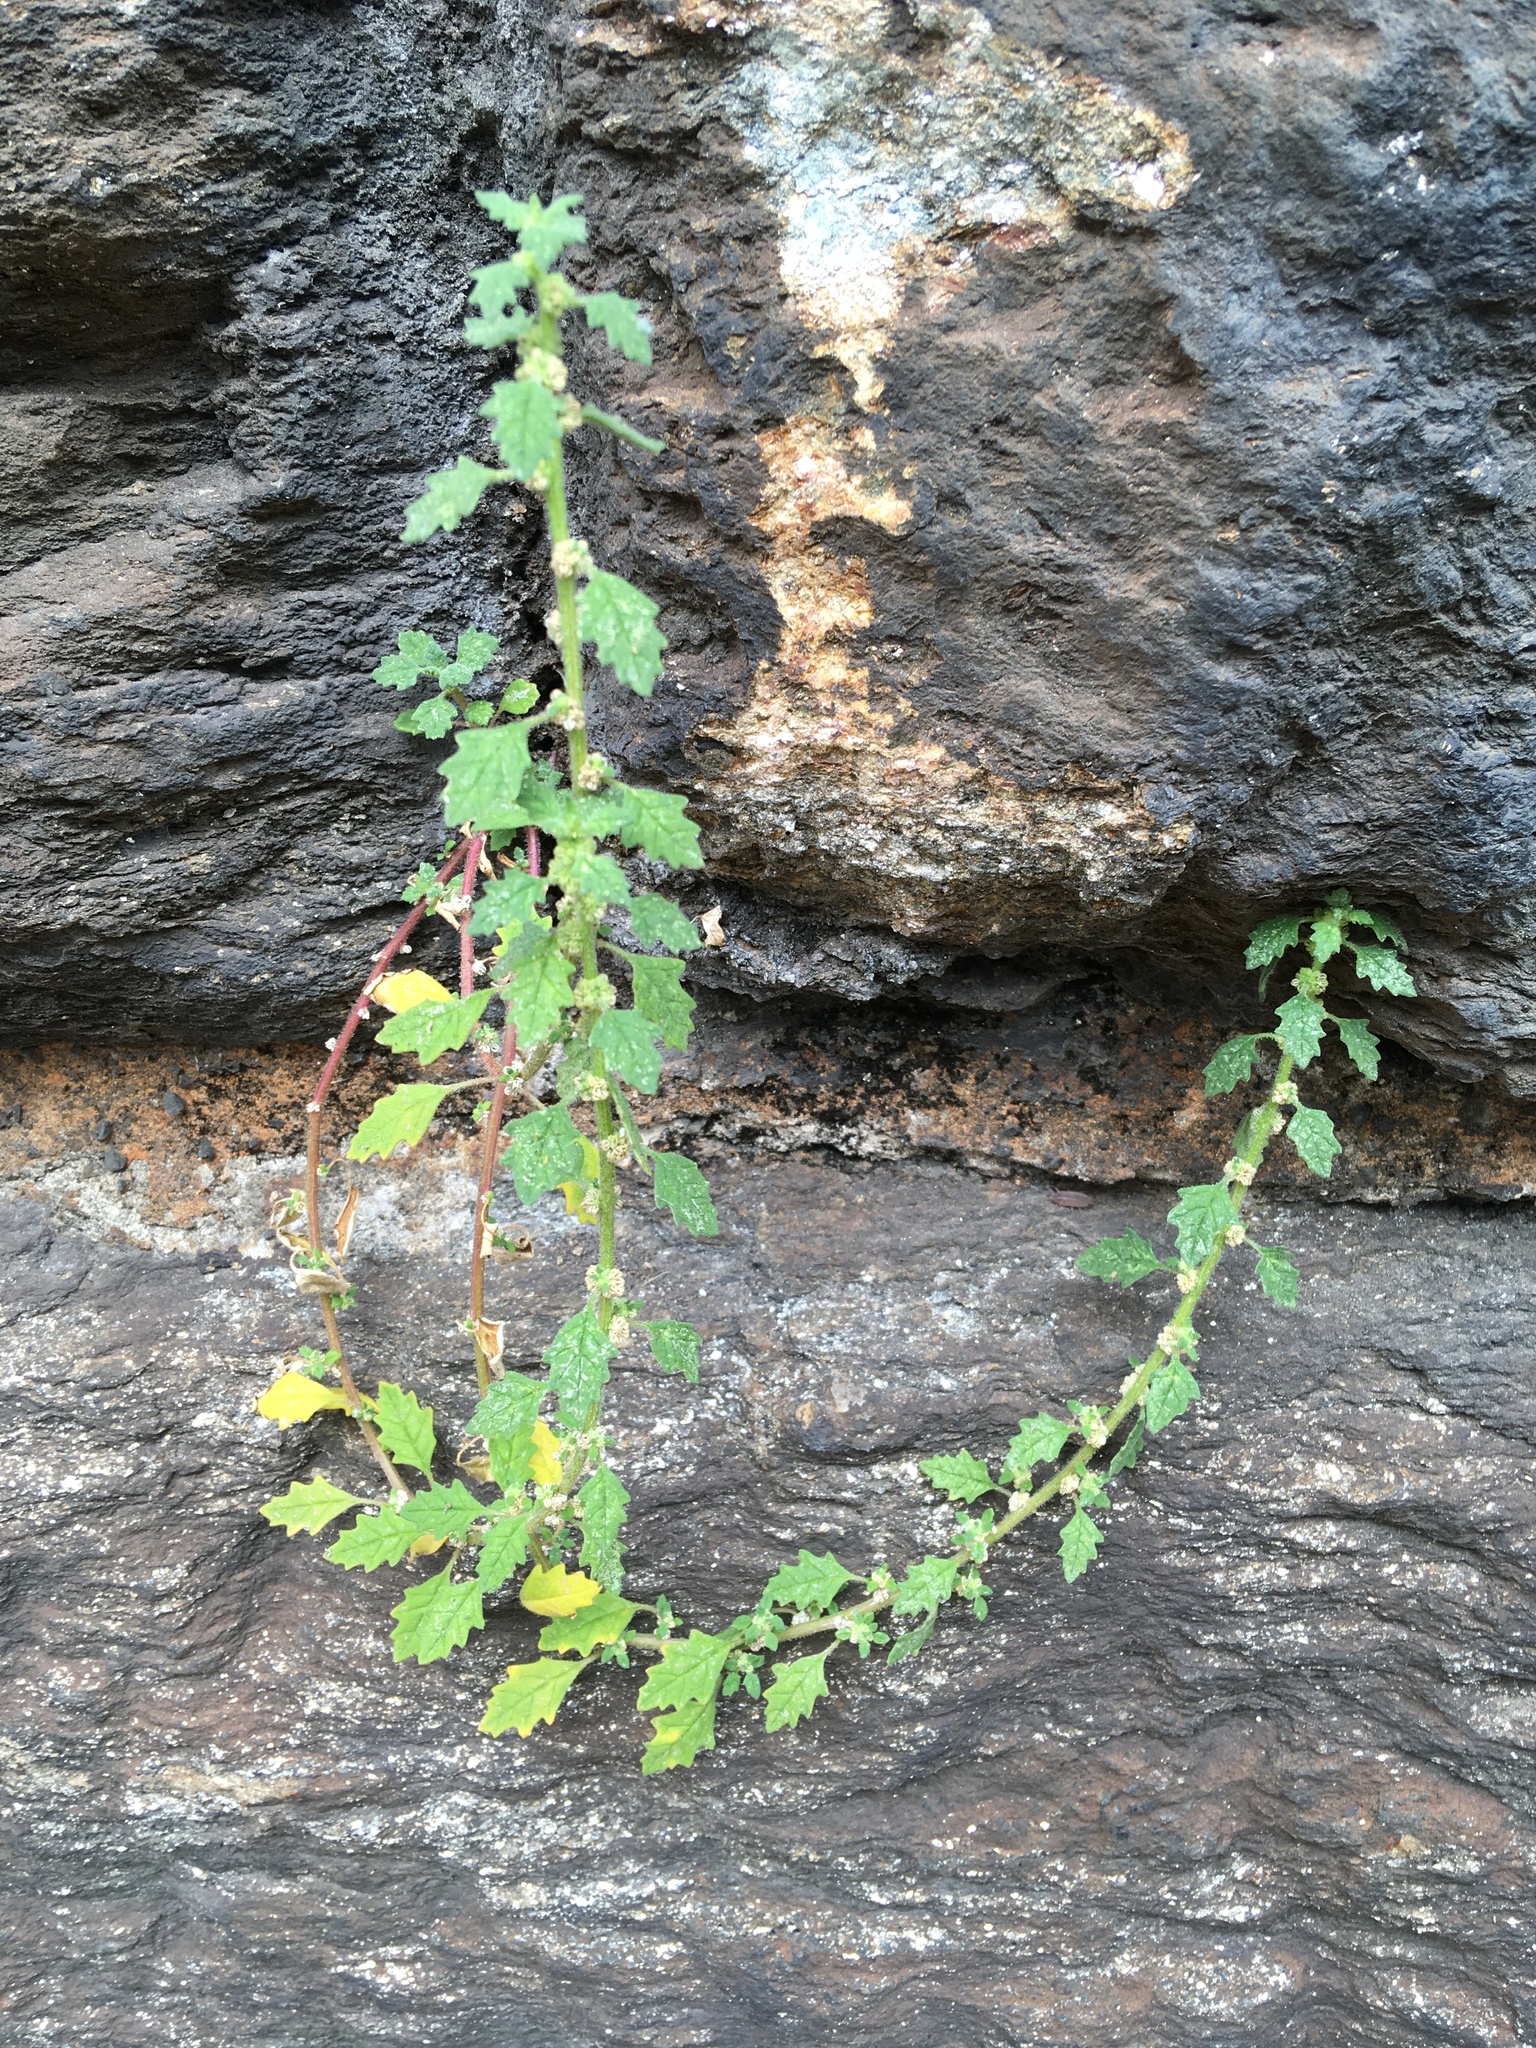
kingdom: Plantae
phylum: Tracheophyta
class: Magnoliopsida
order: Caryophyllales
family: Amaranthaceae
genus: Dysphania
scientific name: Dysphania pumilio
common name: Clammy goosefoot
